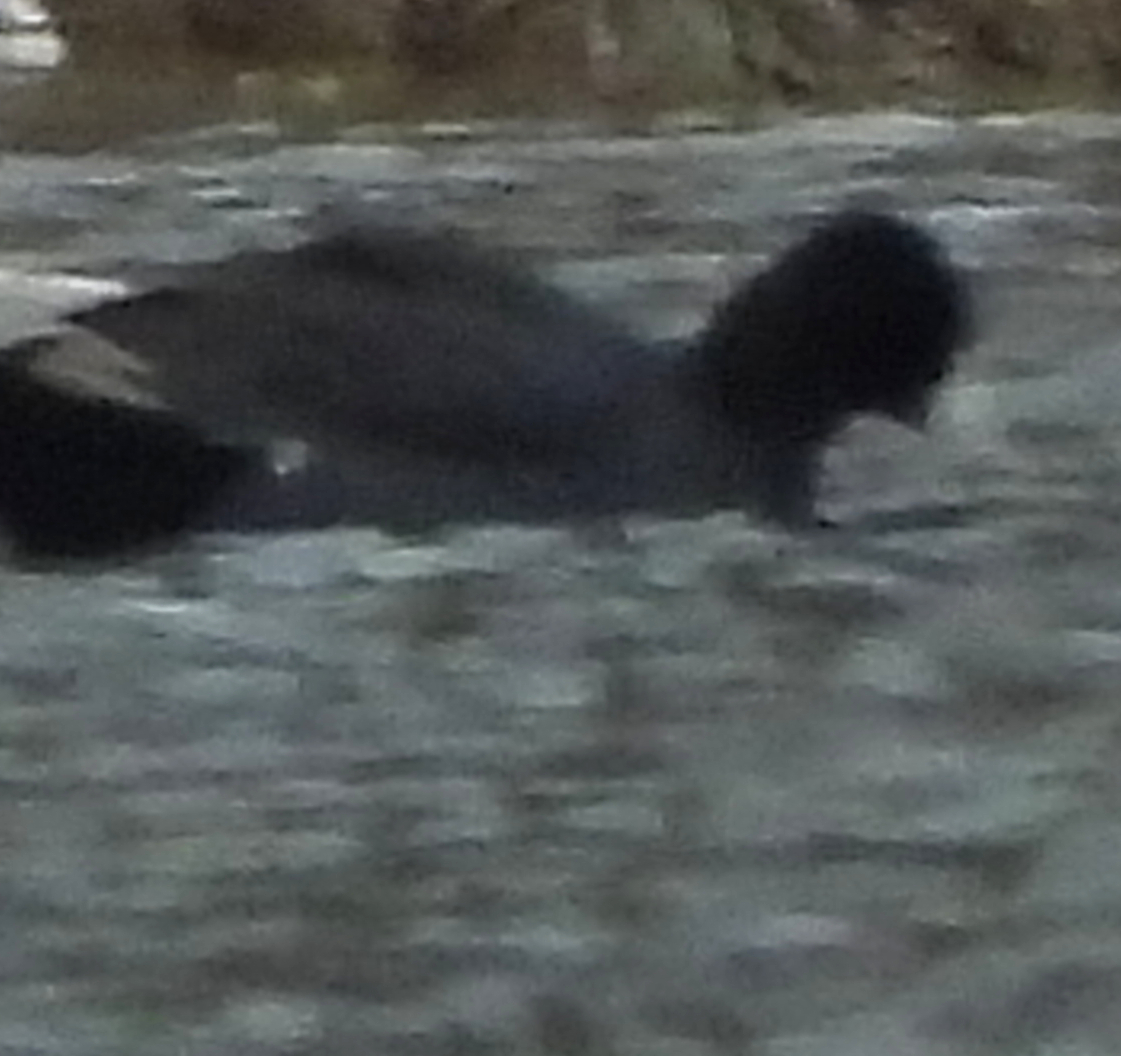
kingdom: Animalia
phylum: Chordata
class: Aves
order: Gruiformes
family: Rallidae
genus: Fulica
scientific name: Fulica americana
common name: American coot
